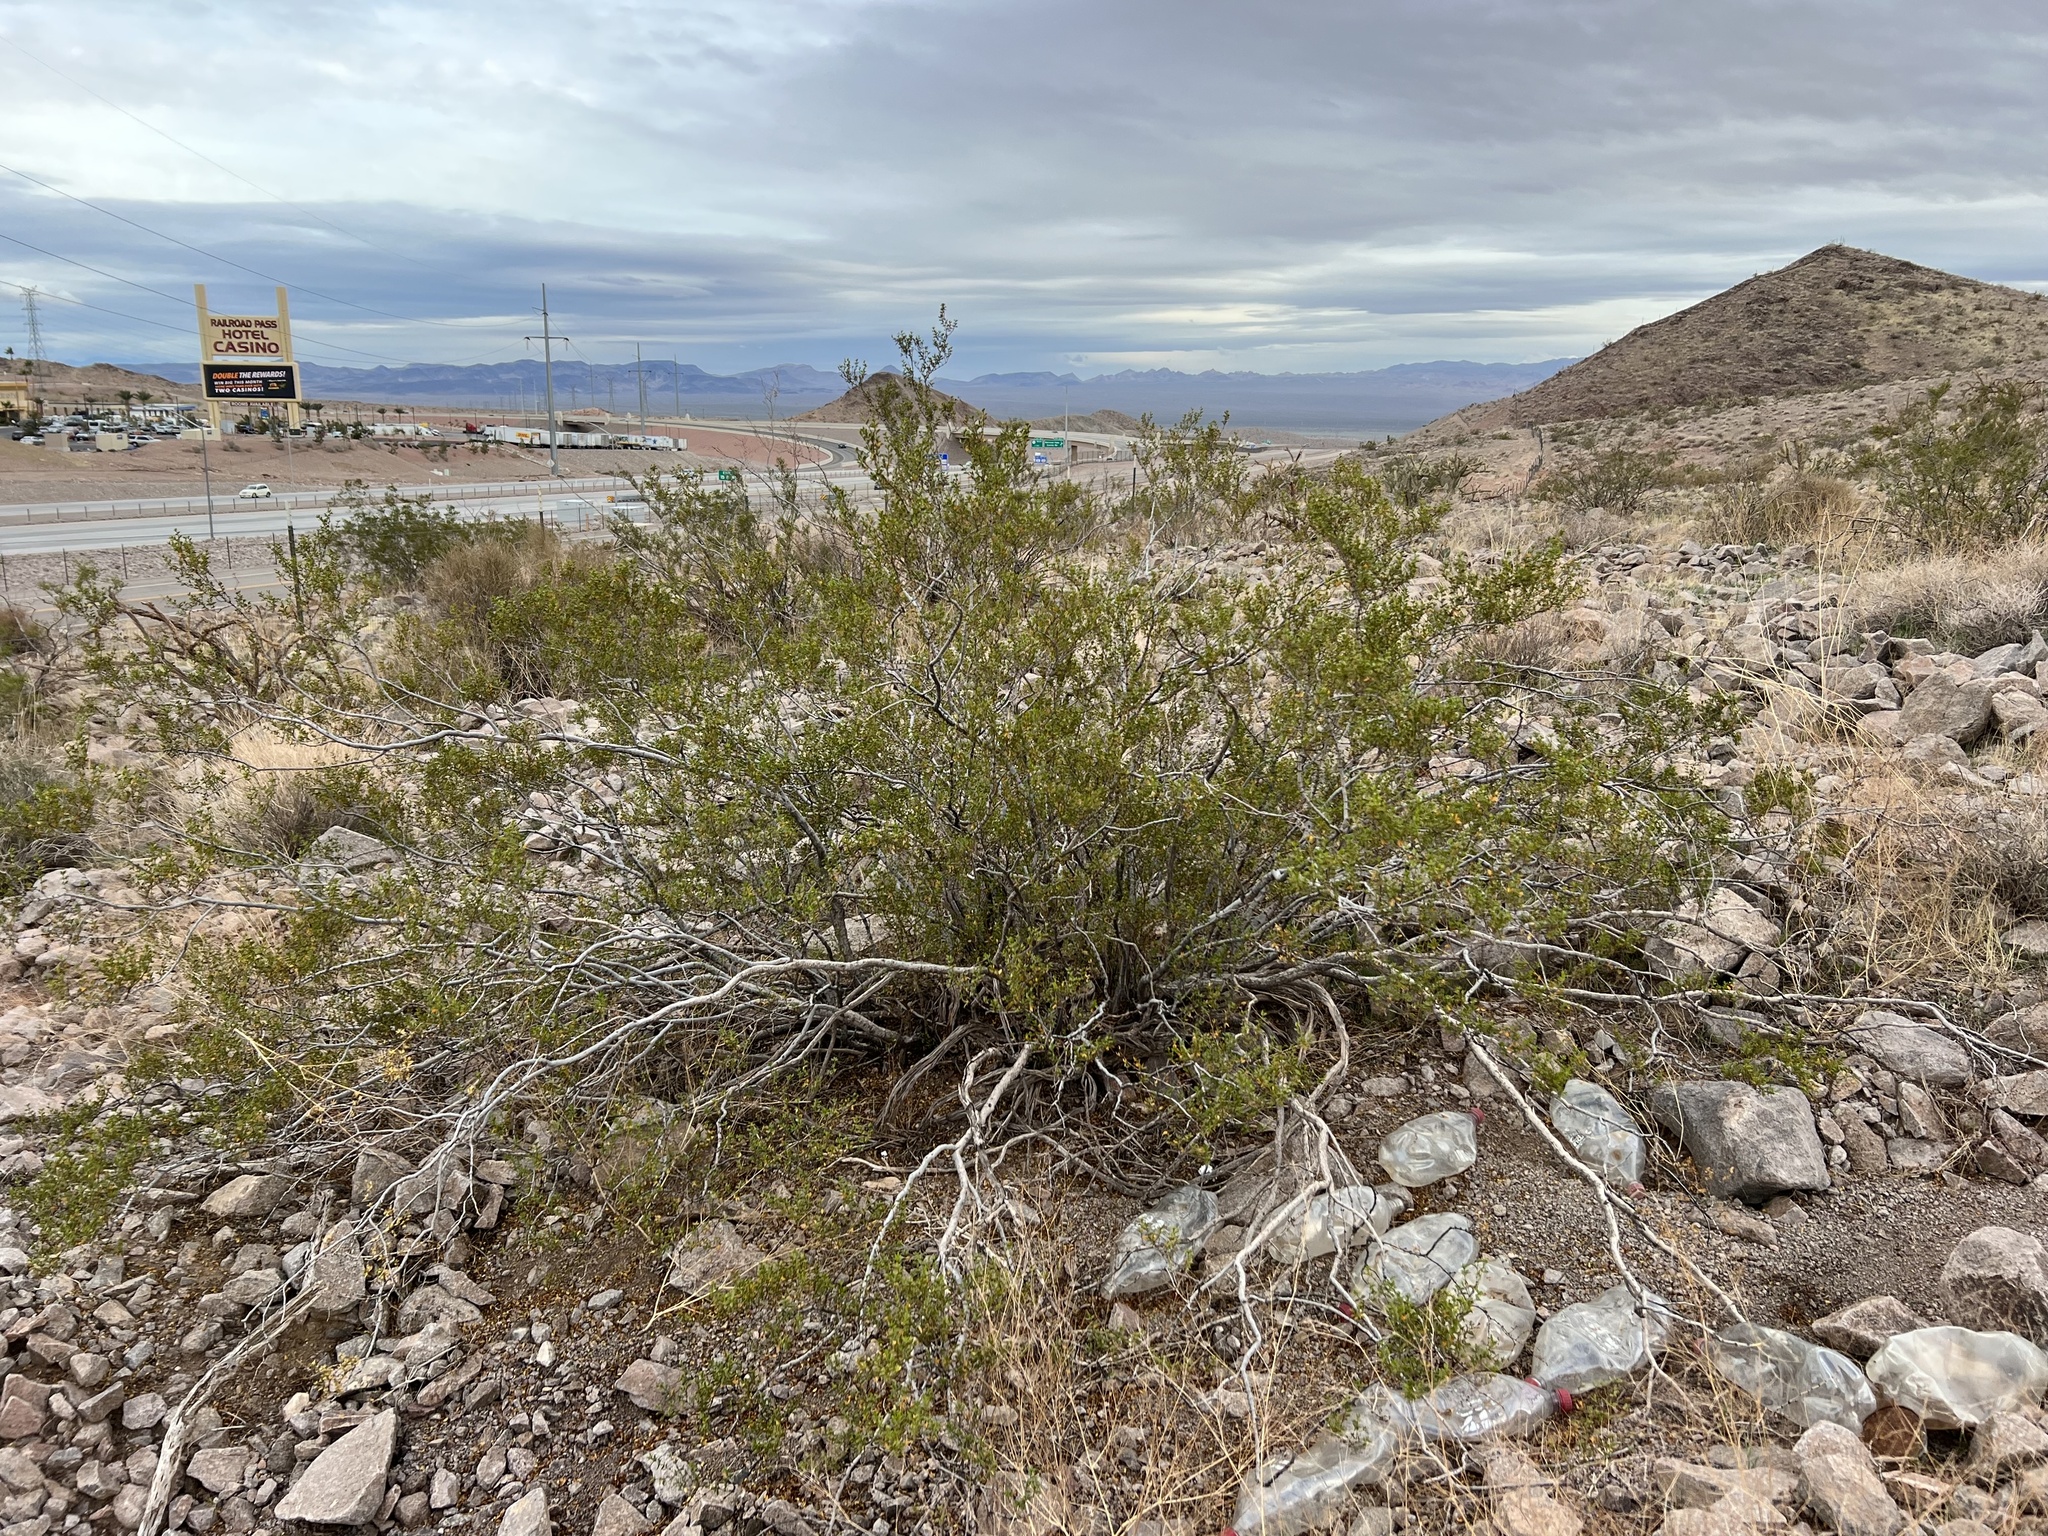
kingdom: Plantae
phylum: Tracheophyta
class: Magnoliopsida
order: Zygophyllales
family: Zygophyllaceae
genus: Larrea
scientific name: Larrea tridentata
